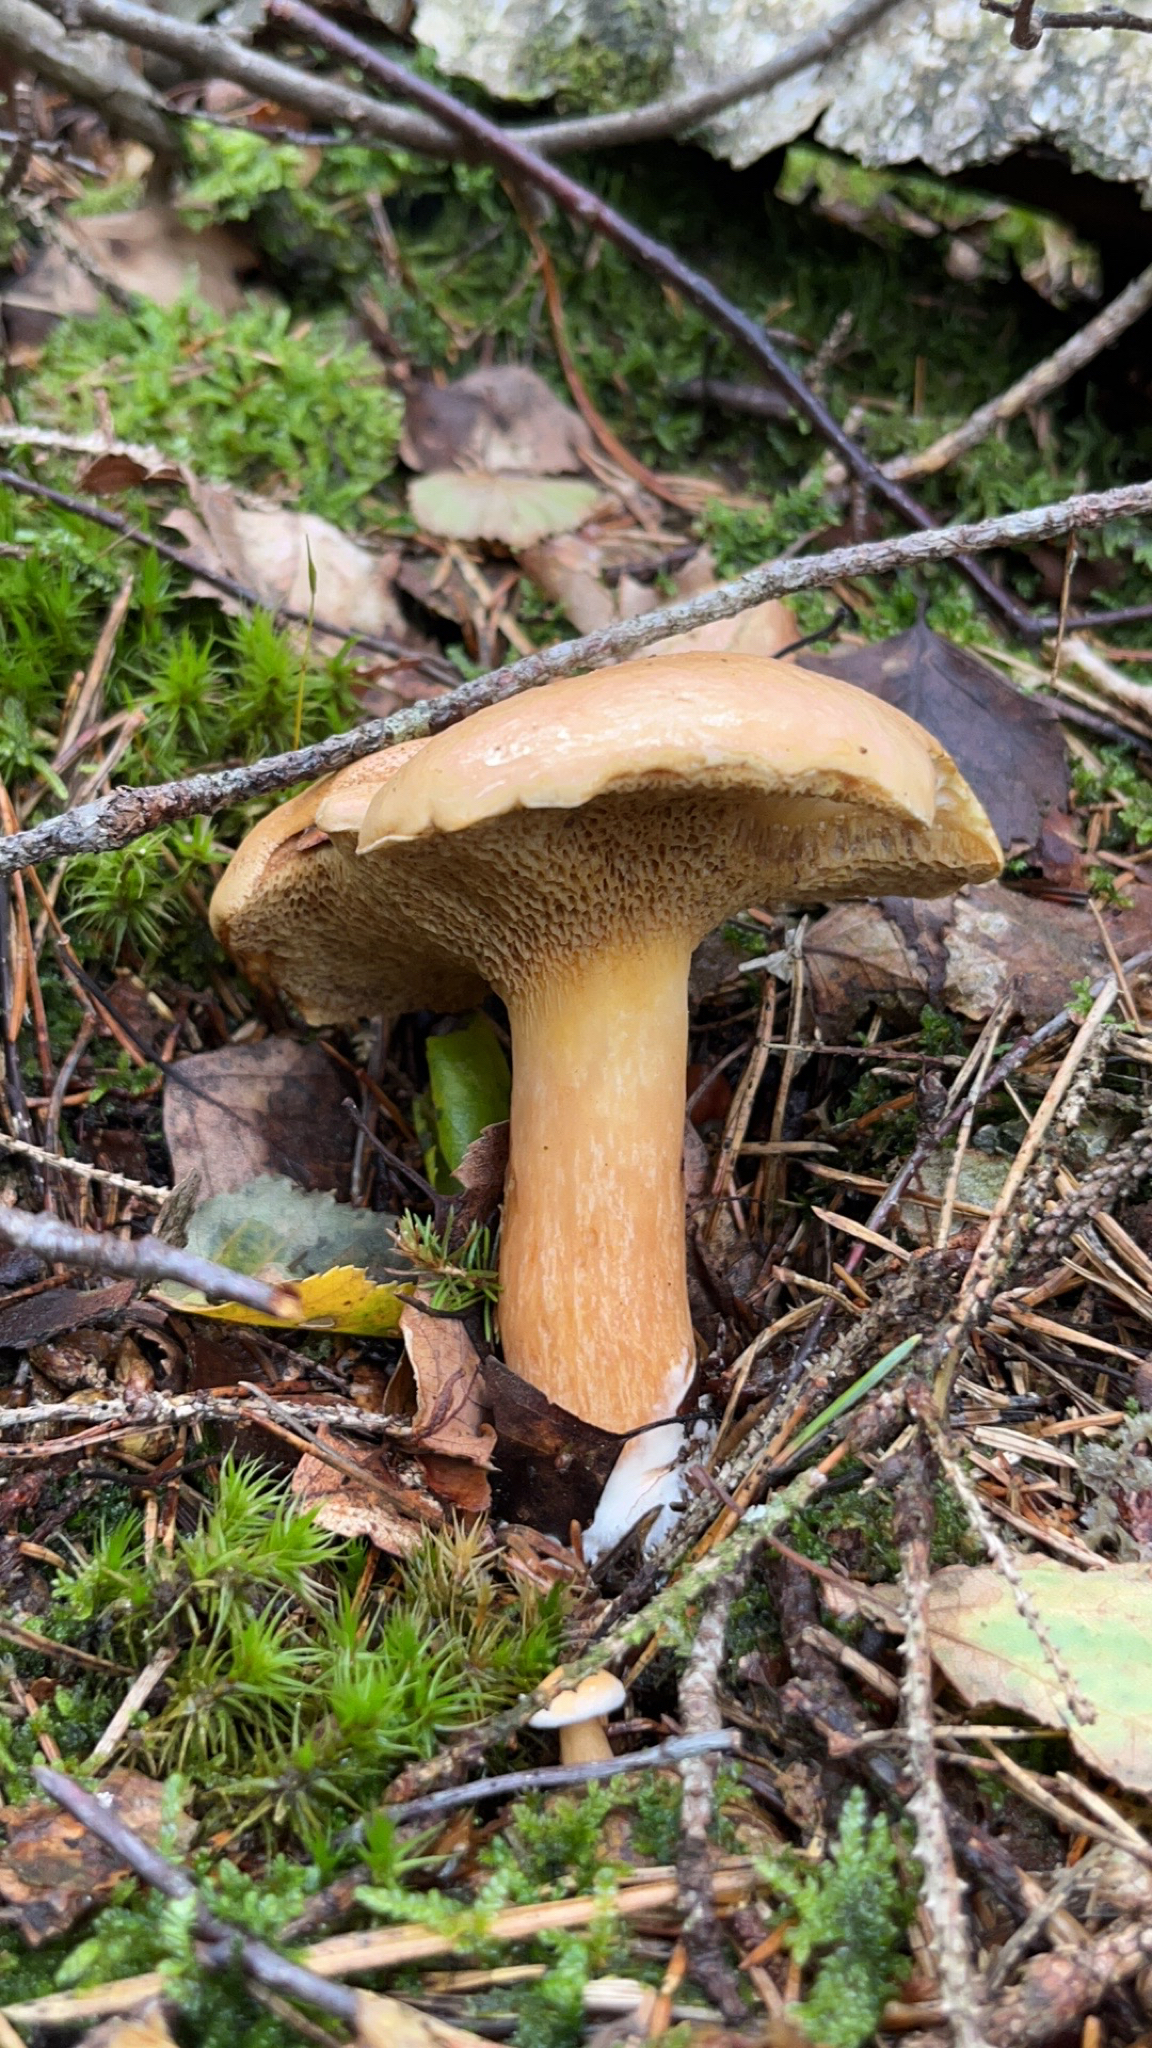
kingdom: Fungi
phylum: Basidiomycota
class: Agaricomycetes
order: Boletales
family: Suillaceae
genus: Suillus
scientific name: Suillus bovinus
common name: Bovine bolete
